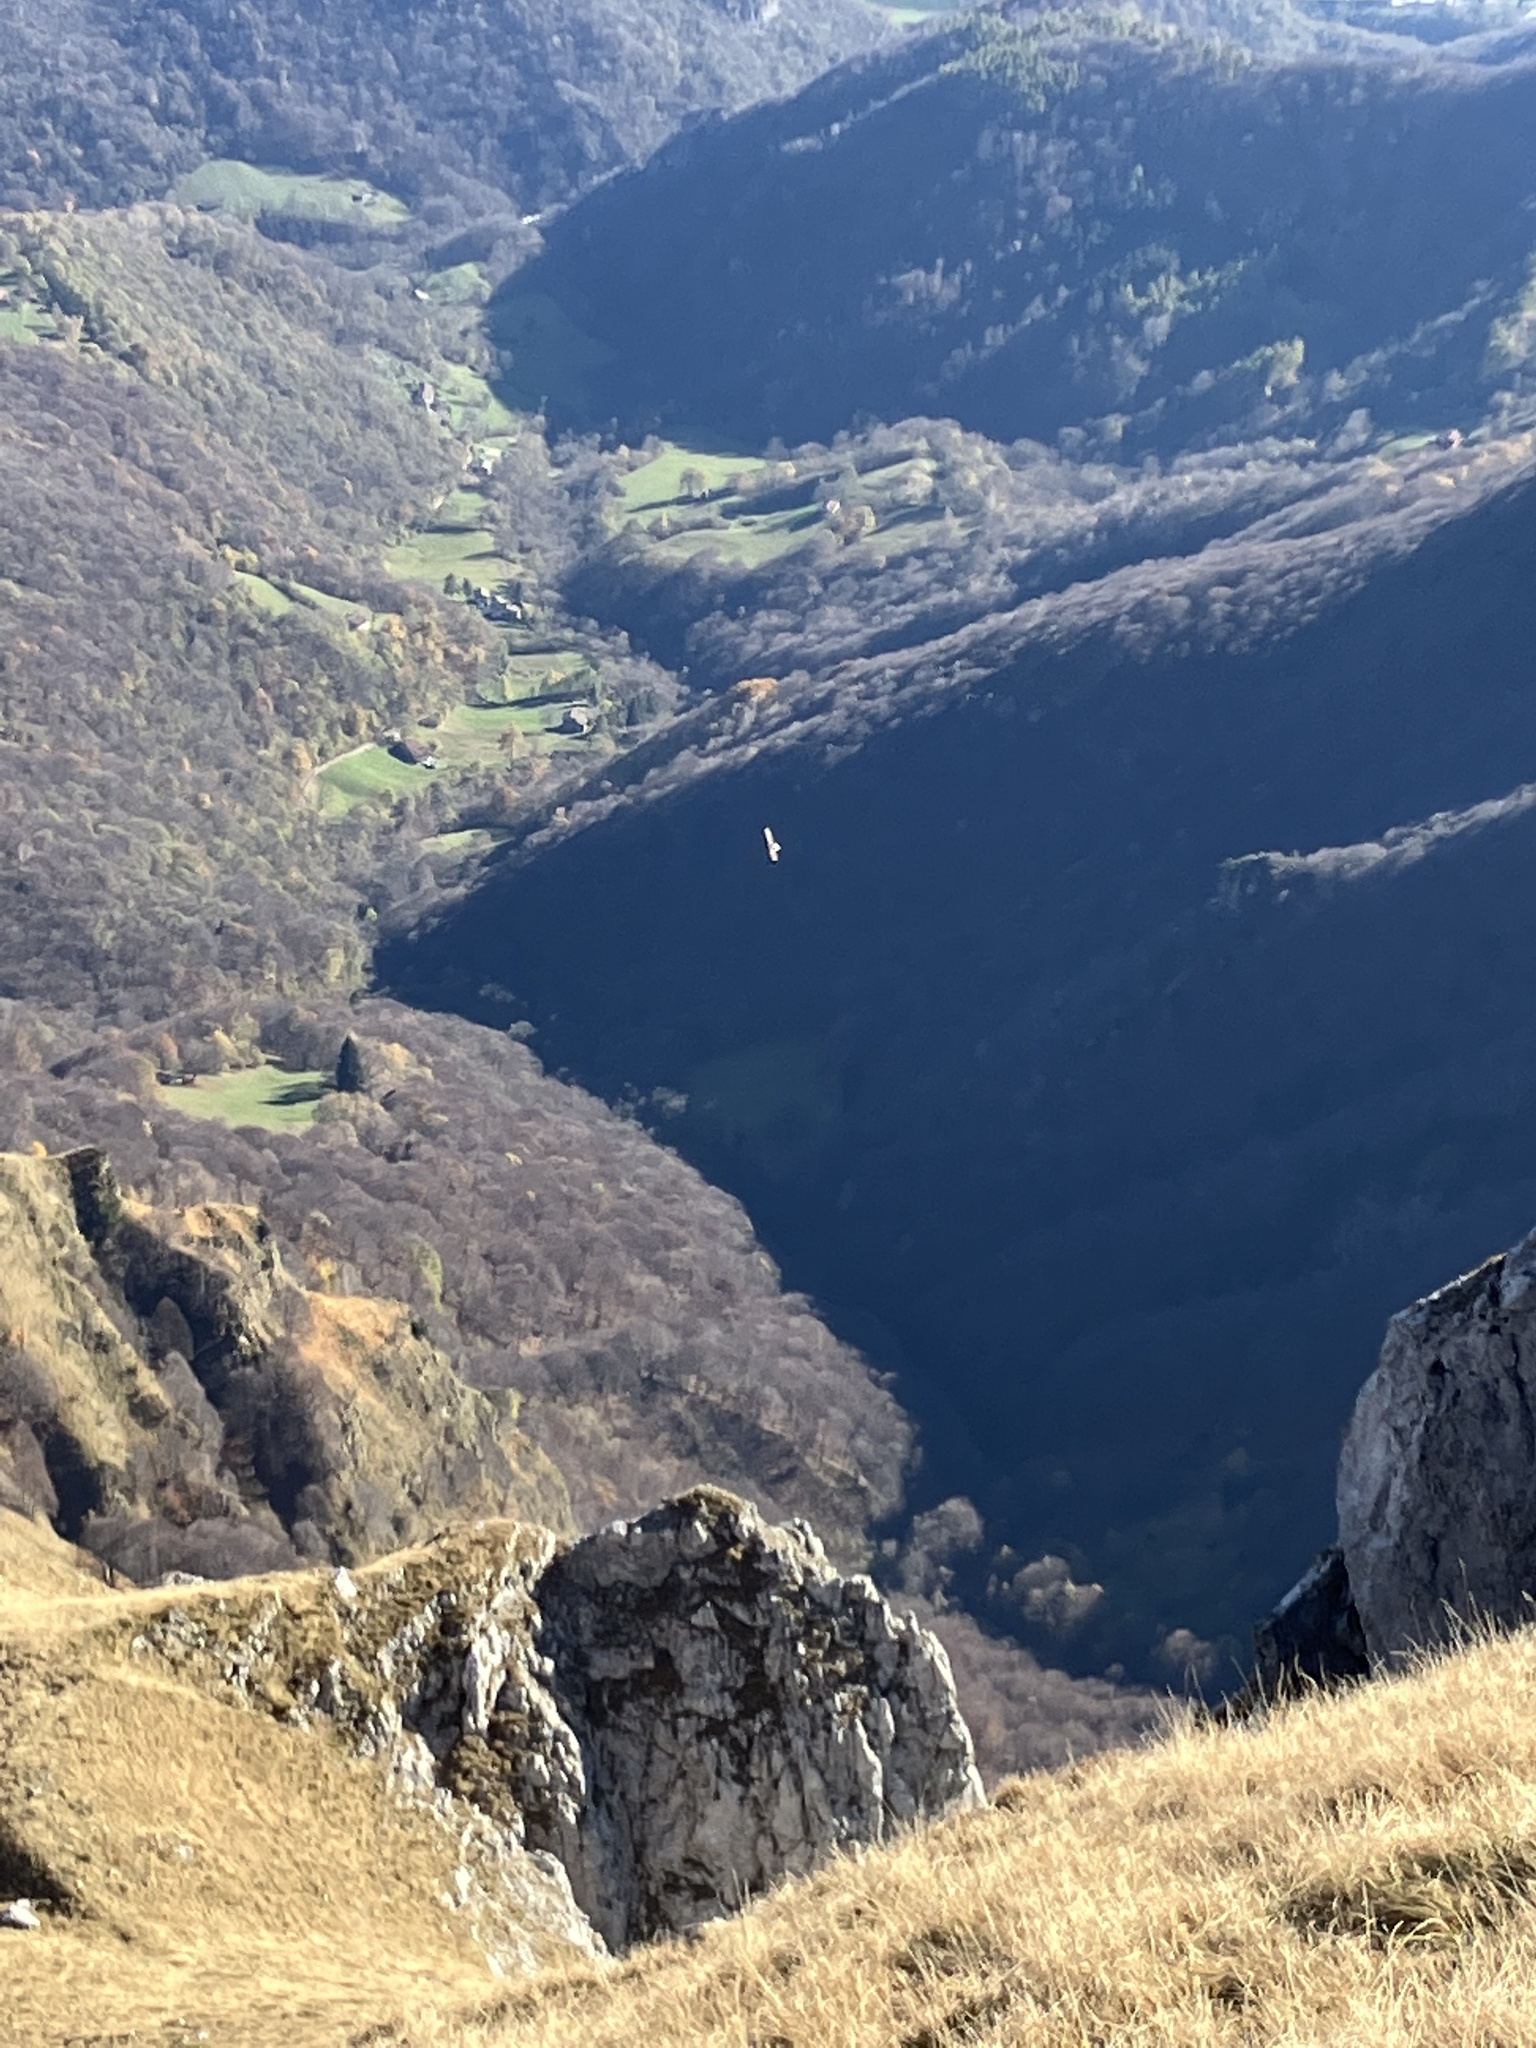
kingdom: Animalia
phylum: Chordata
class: Aves
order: Accipitriformes
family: Accipitridae
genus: Aquila
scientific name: Aquila chrysaetos
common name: Golden eagle
